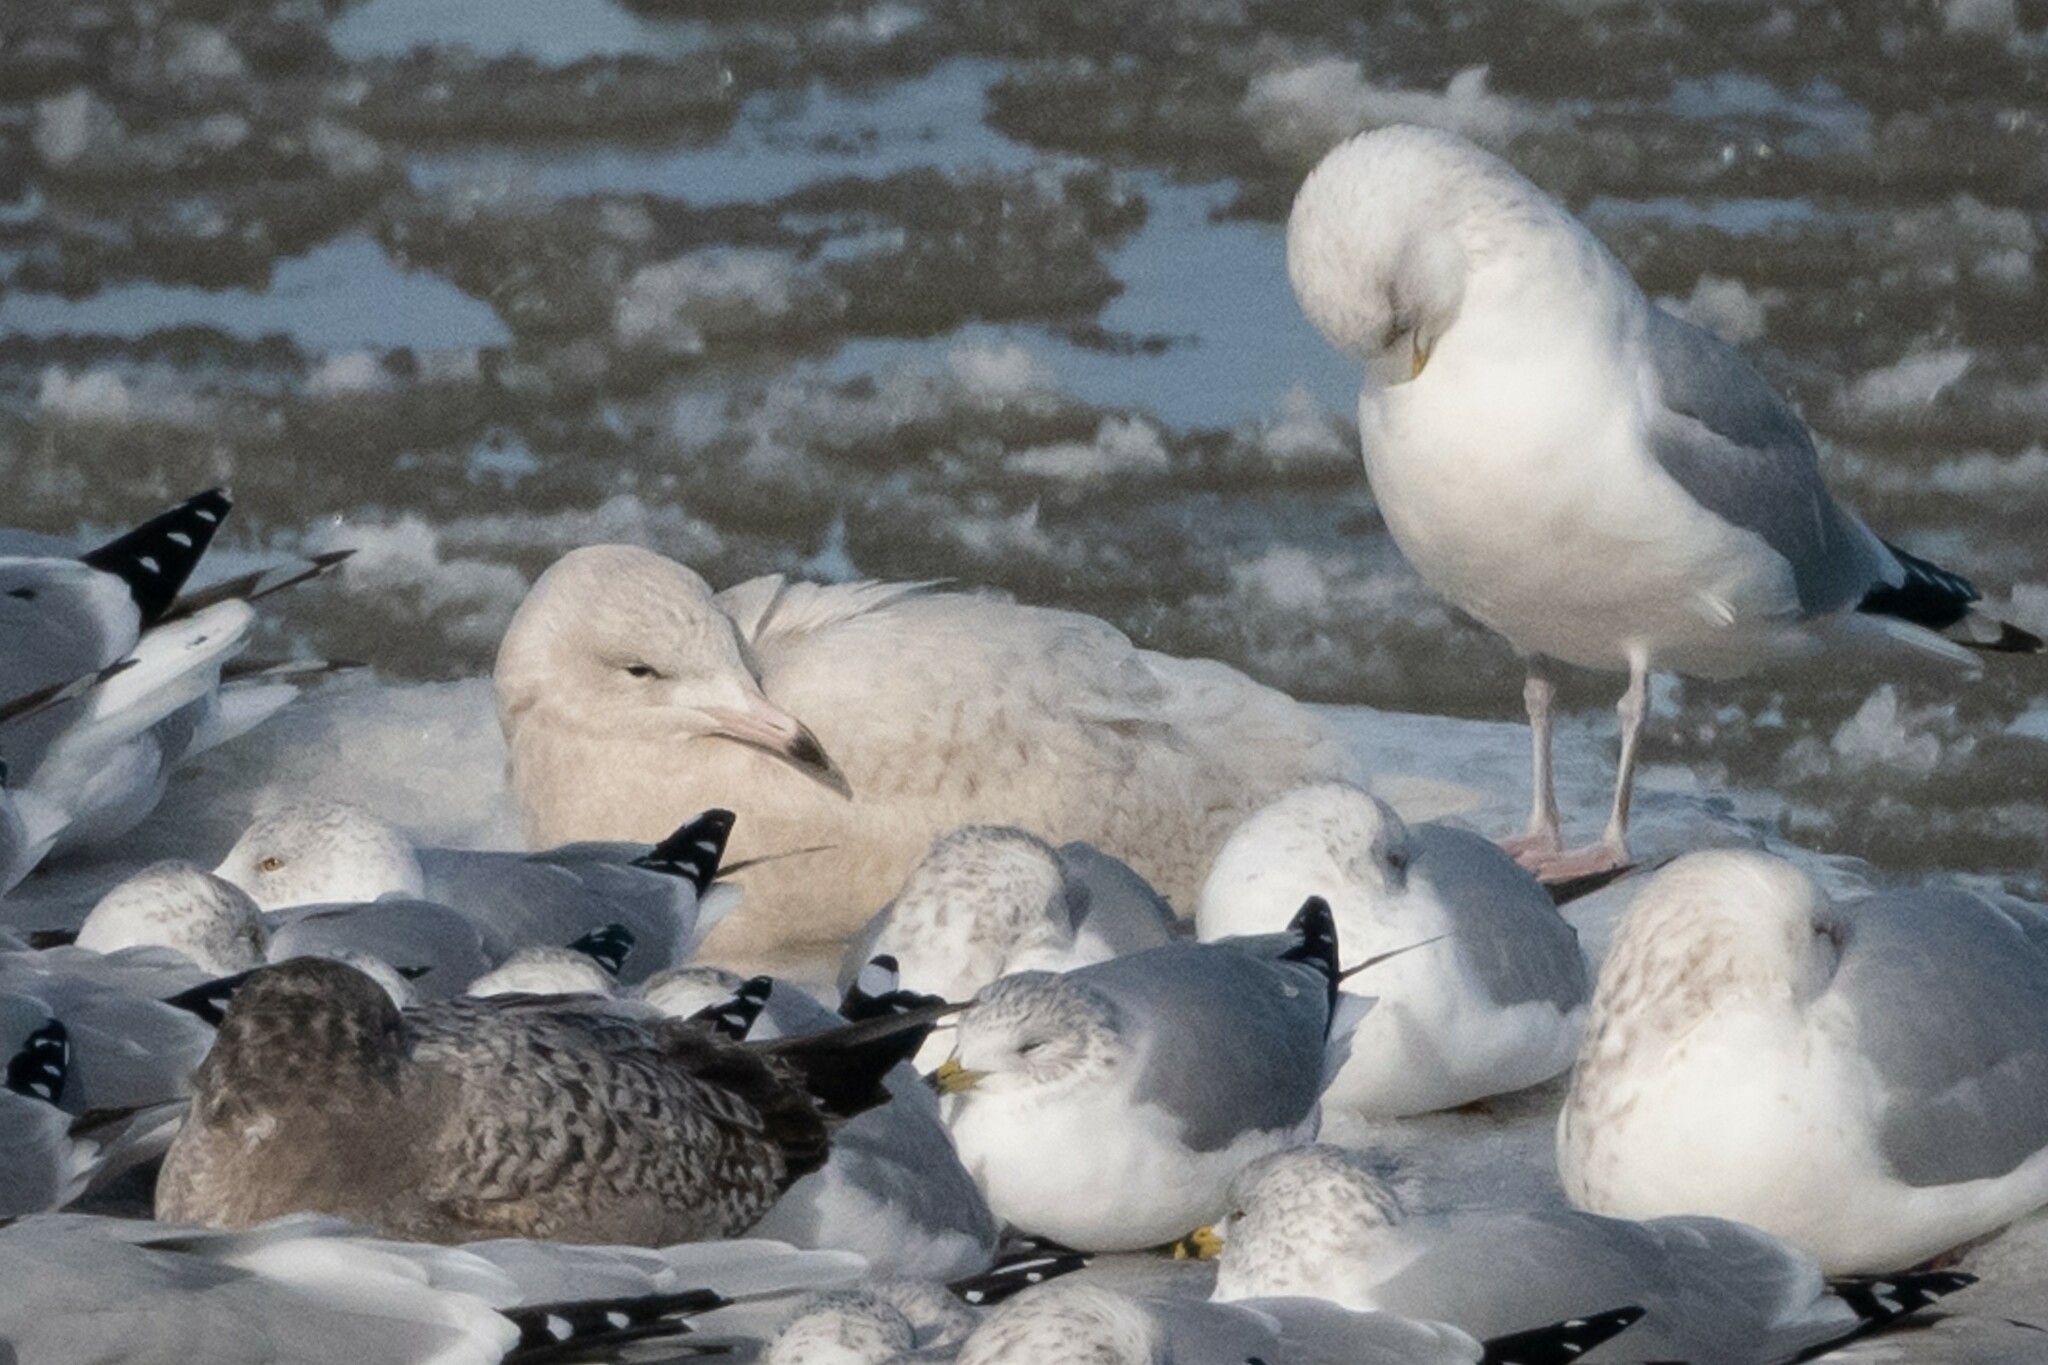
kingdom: Animalia
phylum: Chordata
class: Aves
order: Charadriiformes
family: Laridae
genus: Larus
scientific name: Larus hyperboreus
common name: Glaucous gull
